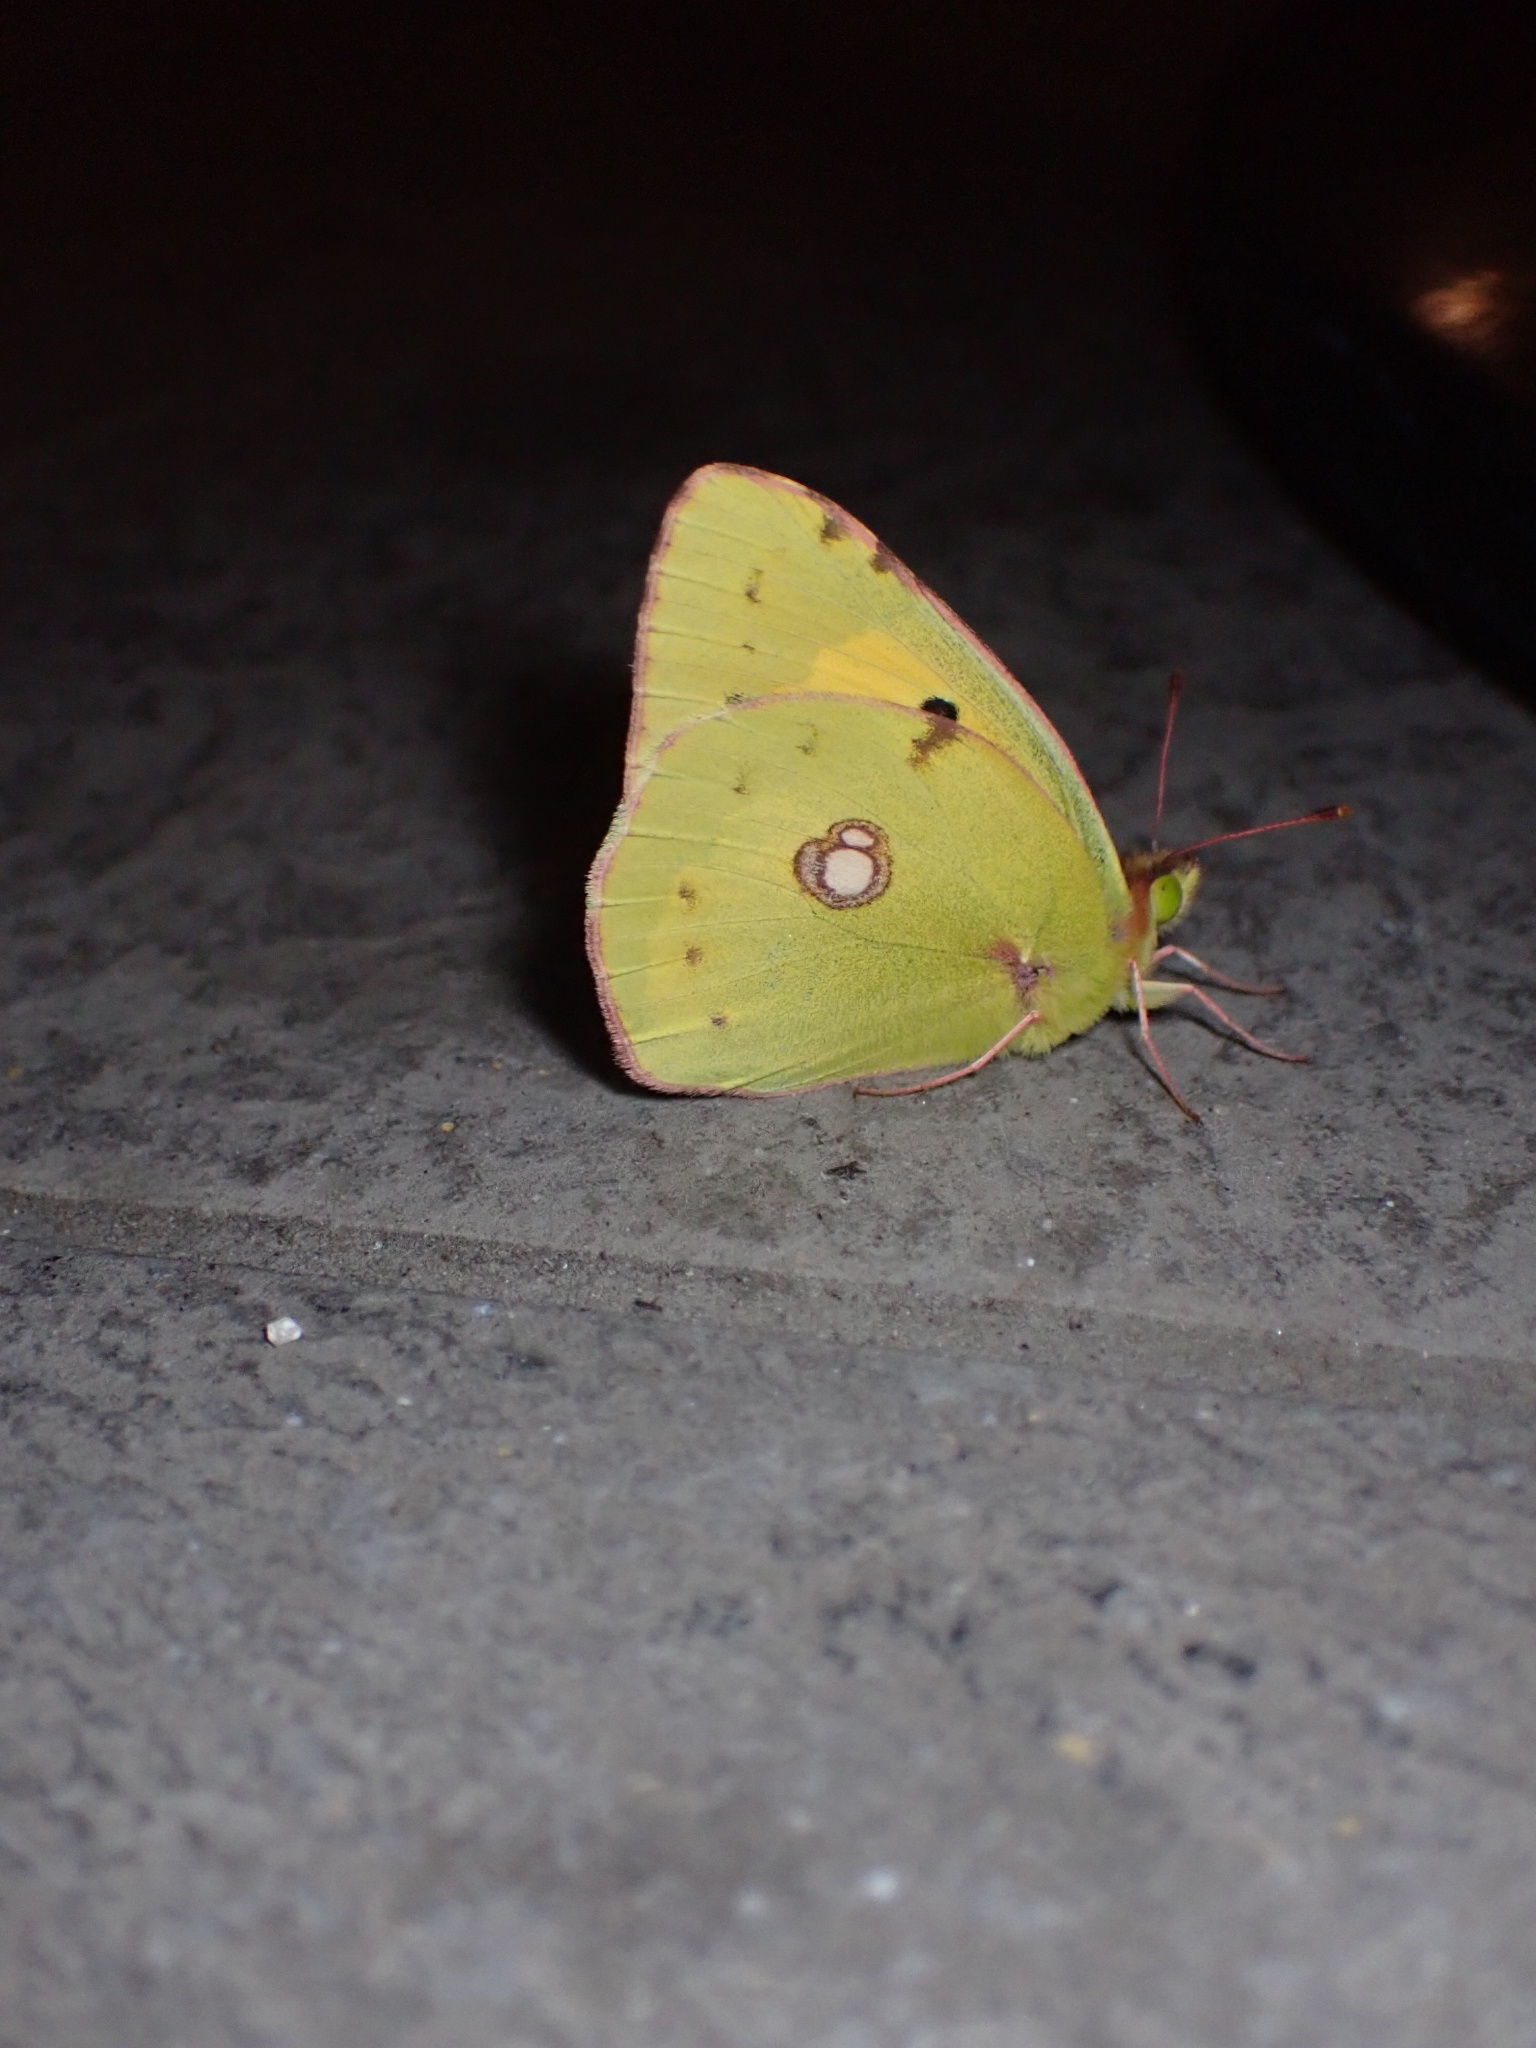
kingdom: Animalia
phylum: Arthropoda
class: Insecta
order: Lepidoptera
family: Pieridae
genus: Colias
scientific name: Colias croceus
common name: Clouded yellow
